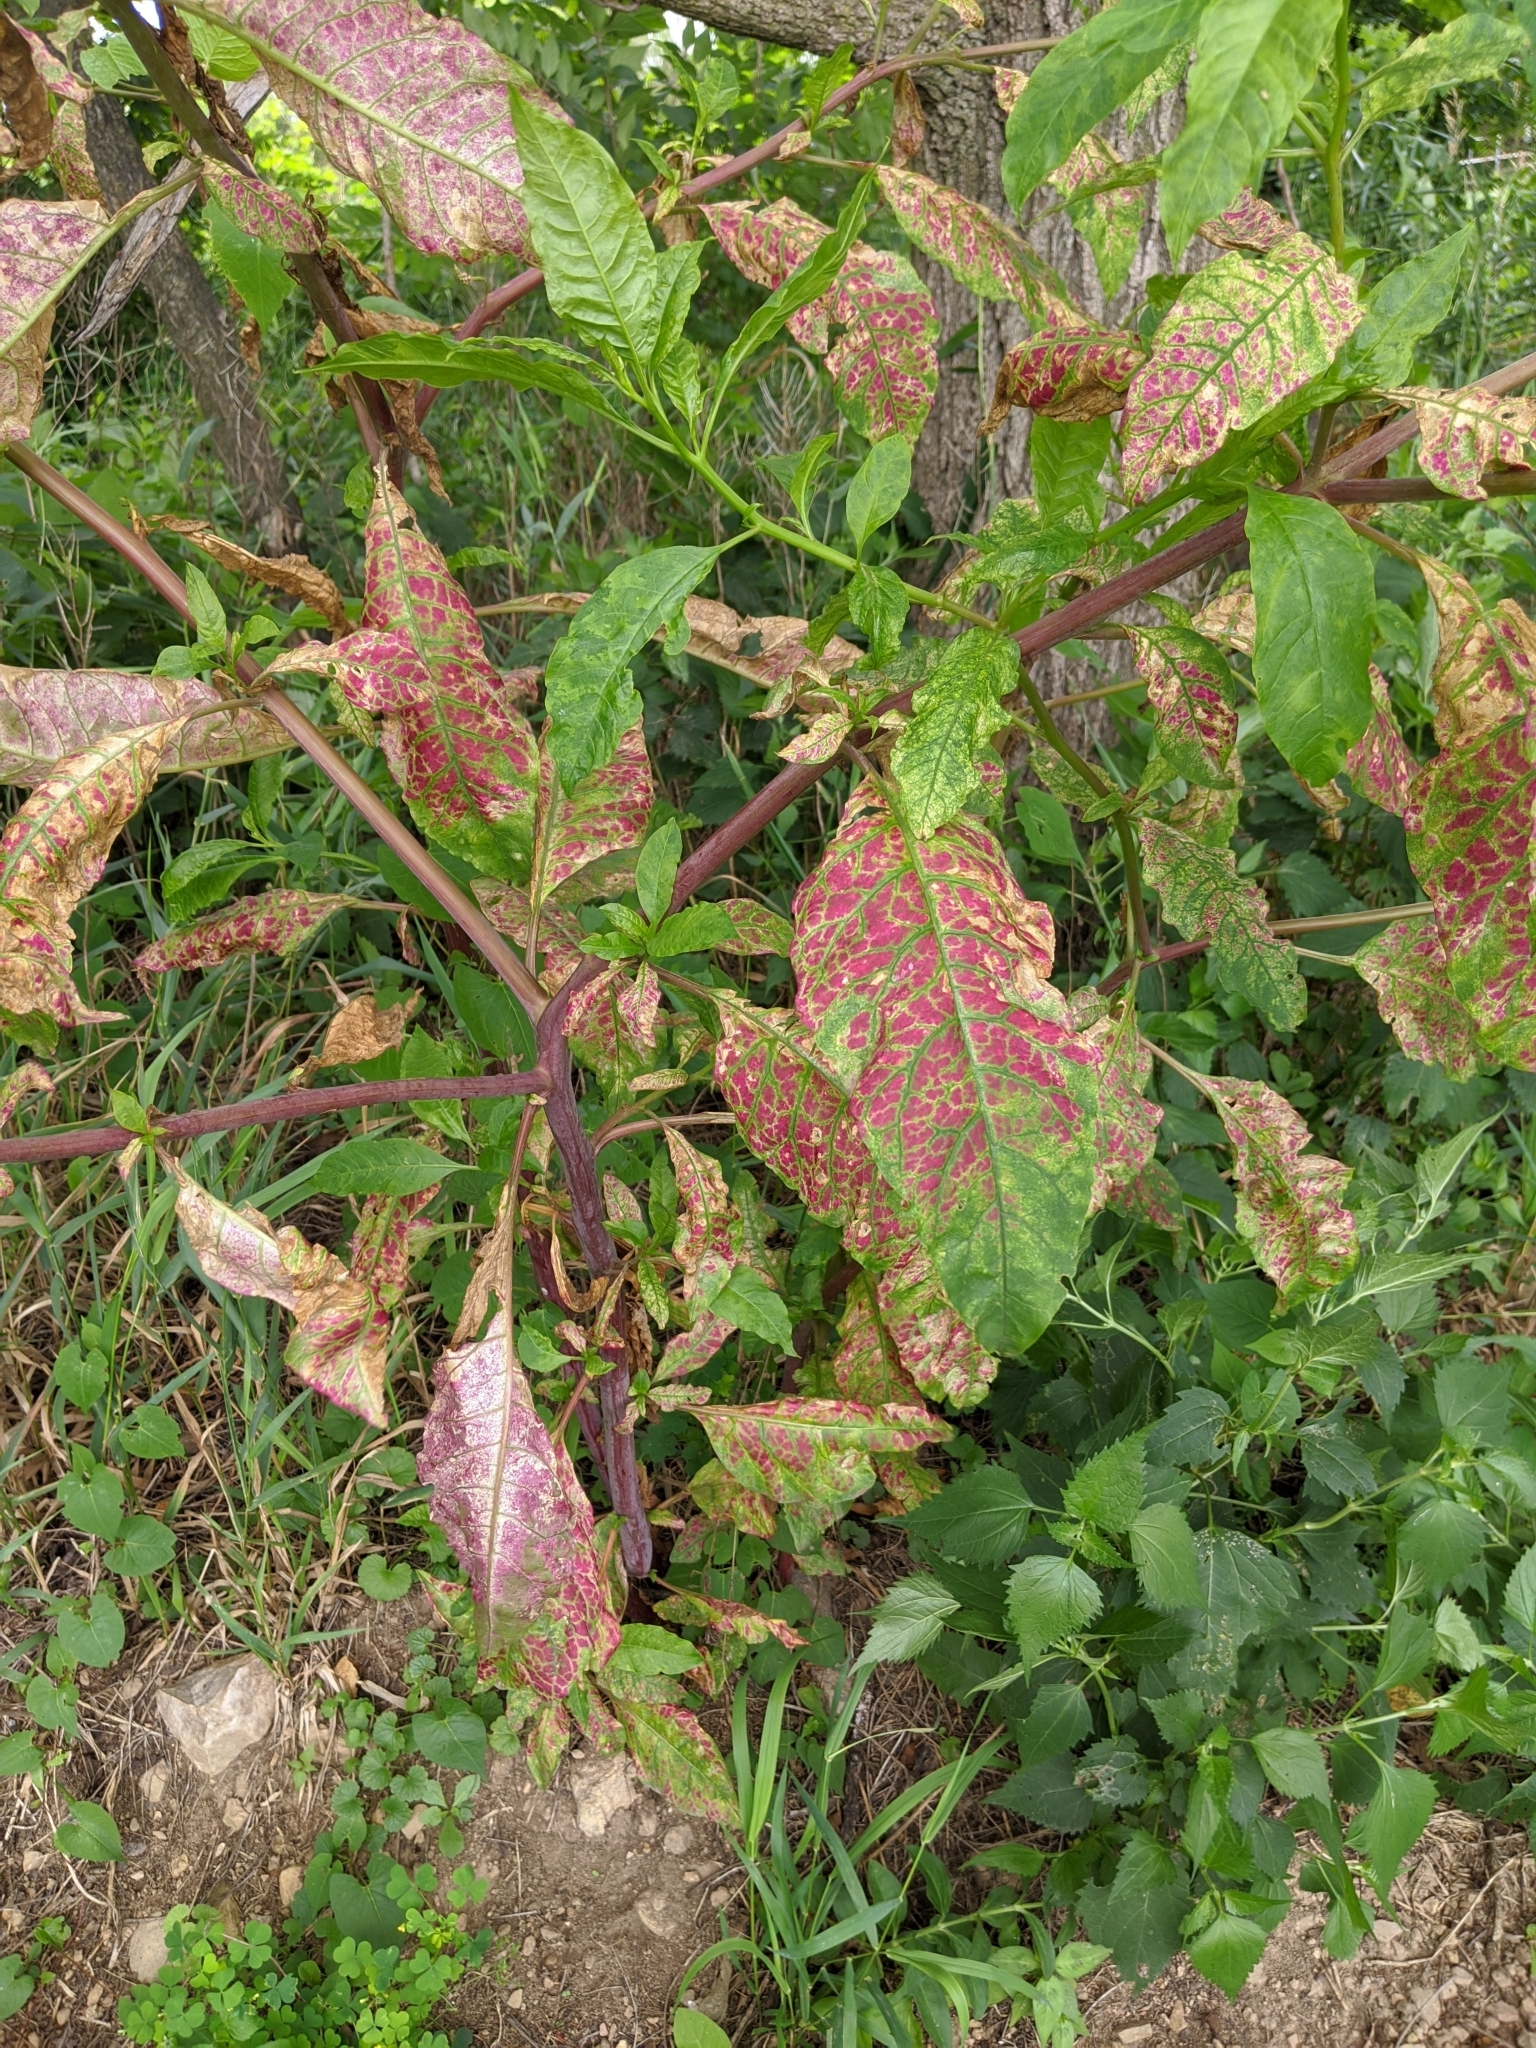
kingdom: Plantae
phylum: Tracheophyta
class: Magnoliopsida
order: Caryophyllales
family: Phytolaccaceae
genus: Phytolacca
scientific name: Phytolacca americana
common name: American pokeweed
